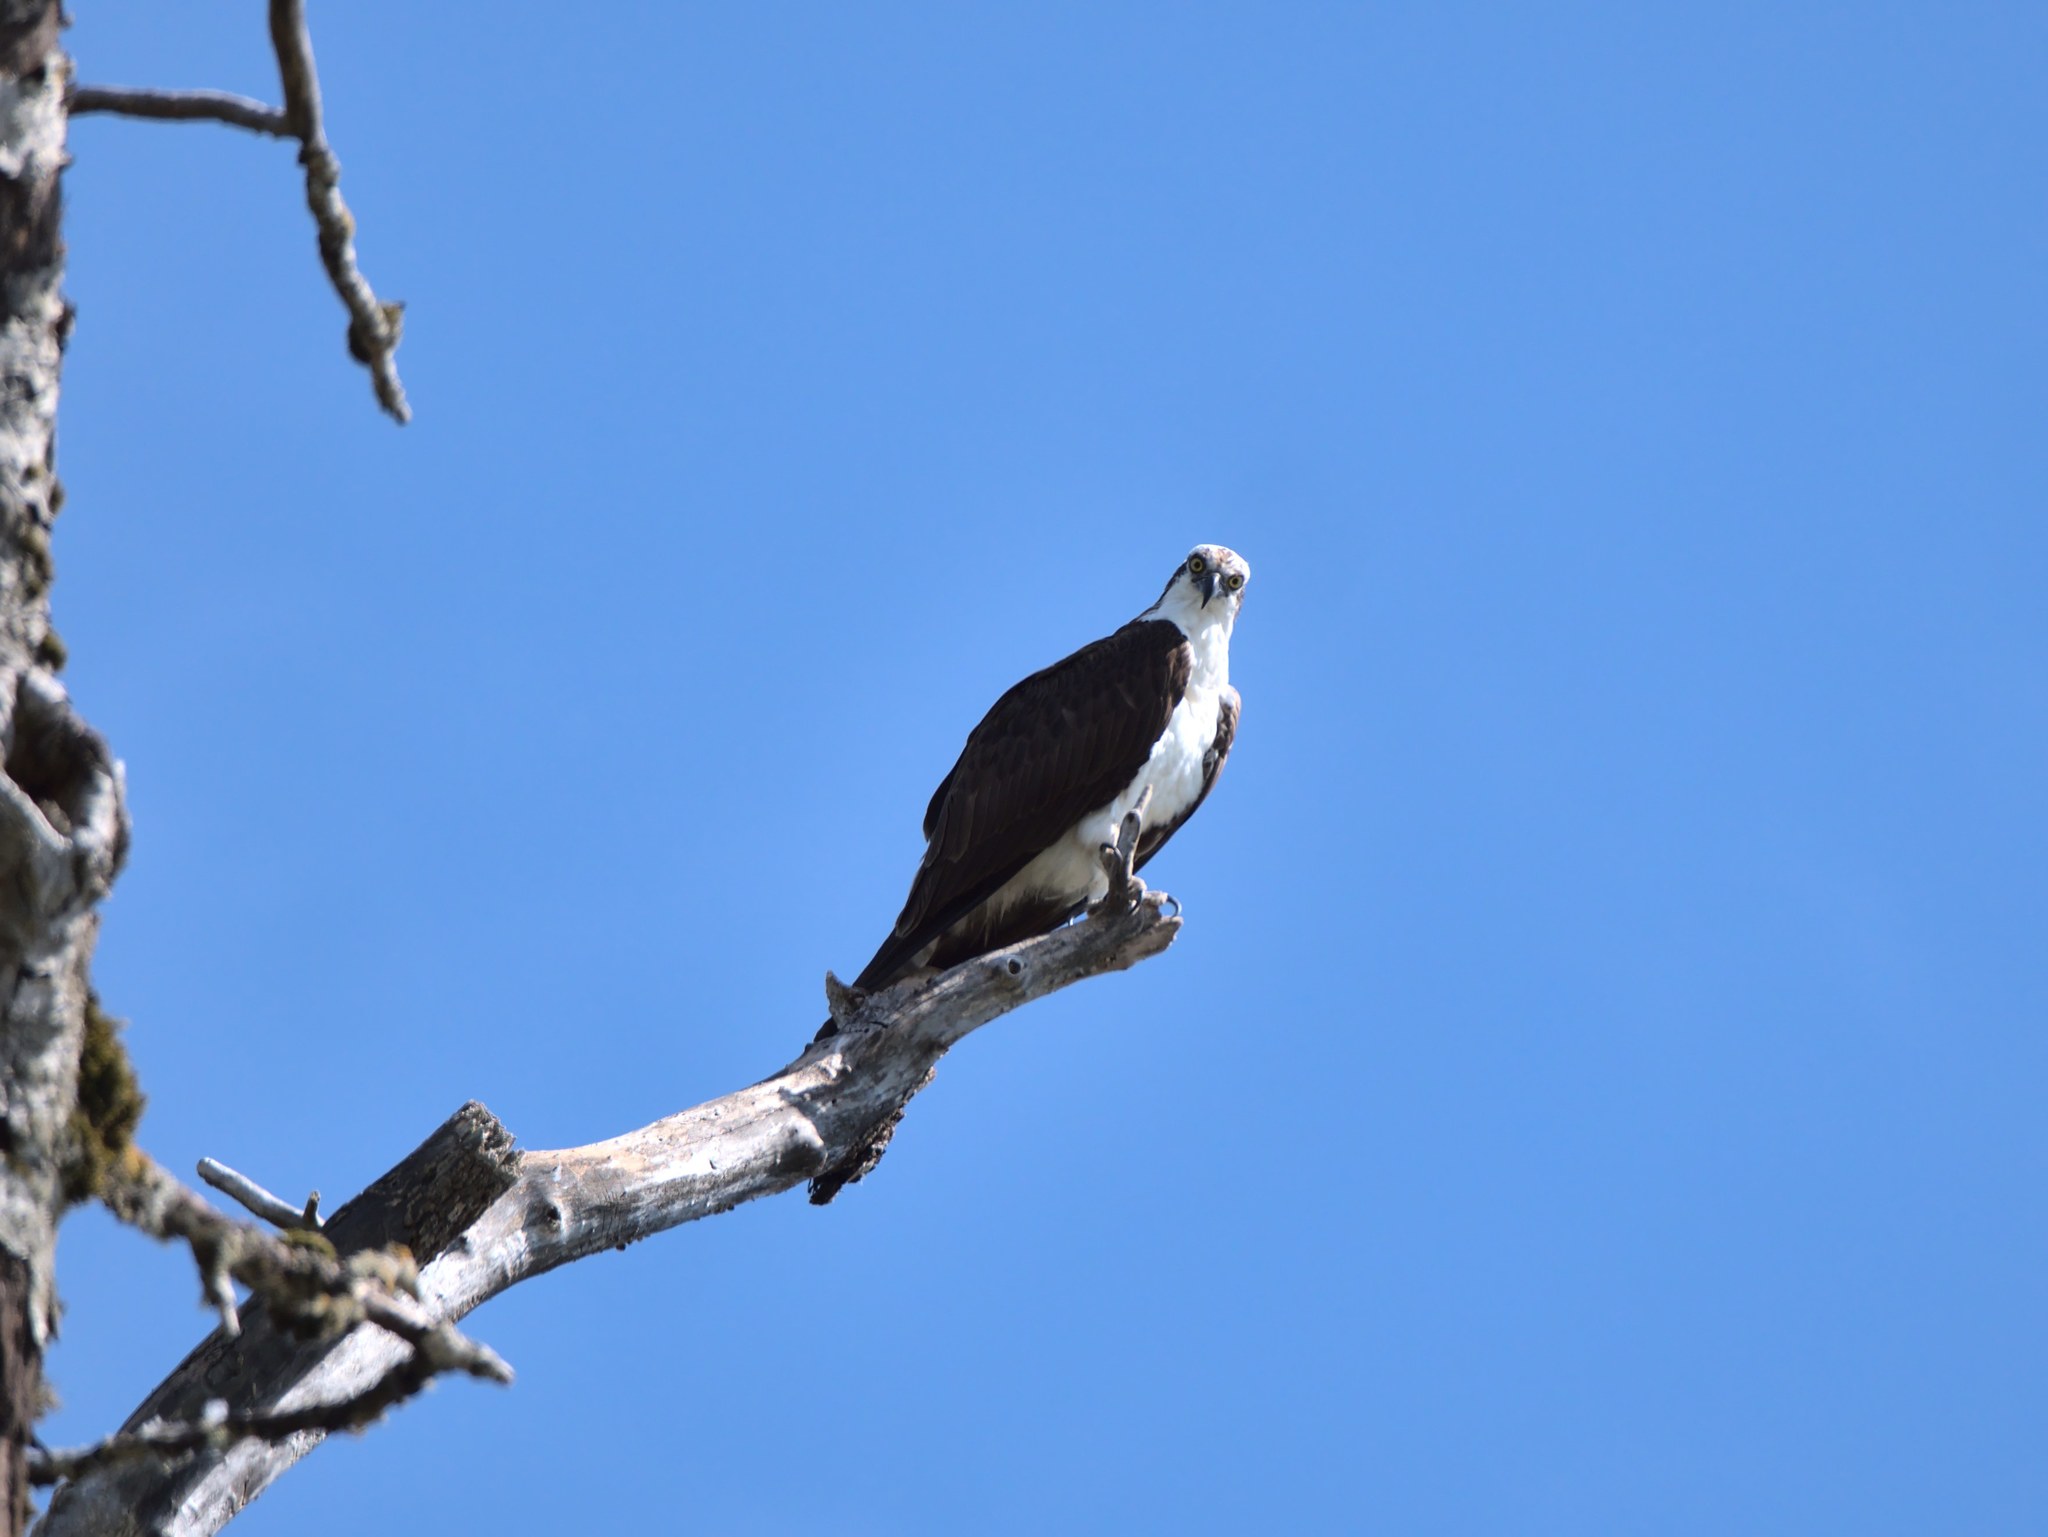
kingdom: Animalia
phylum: Chordata
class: Aves
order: Accipitriformes
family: Pandionidae
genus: Pandion
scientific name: Pandion haliaetus
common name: Osprey
